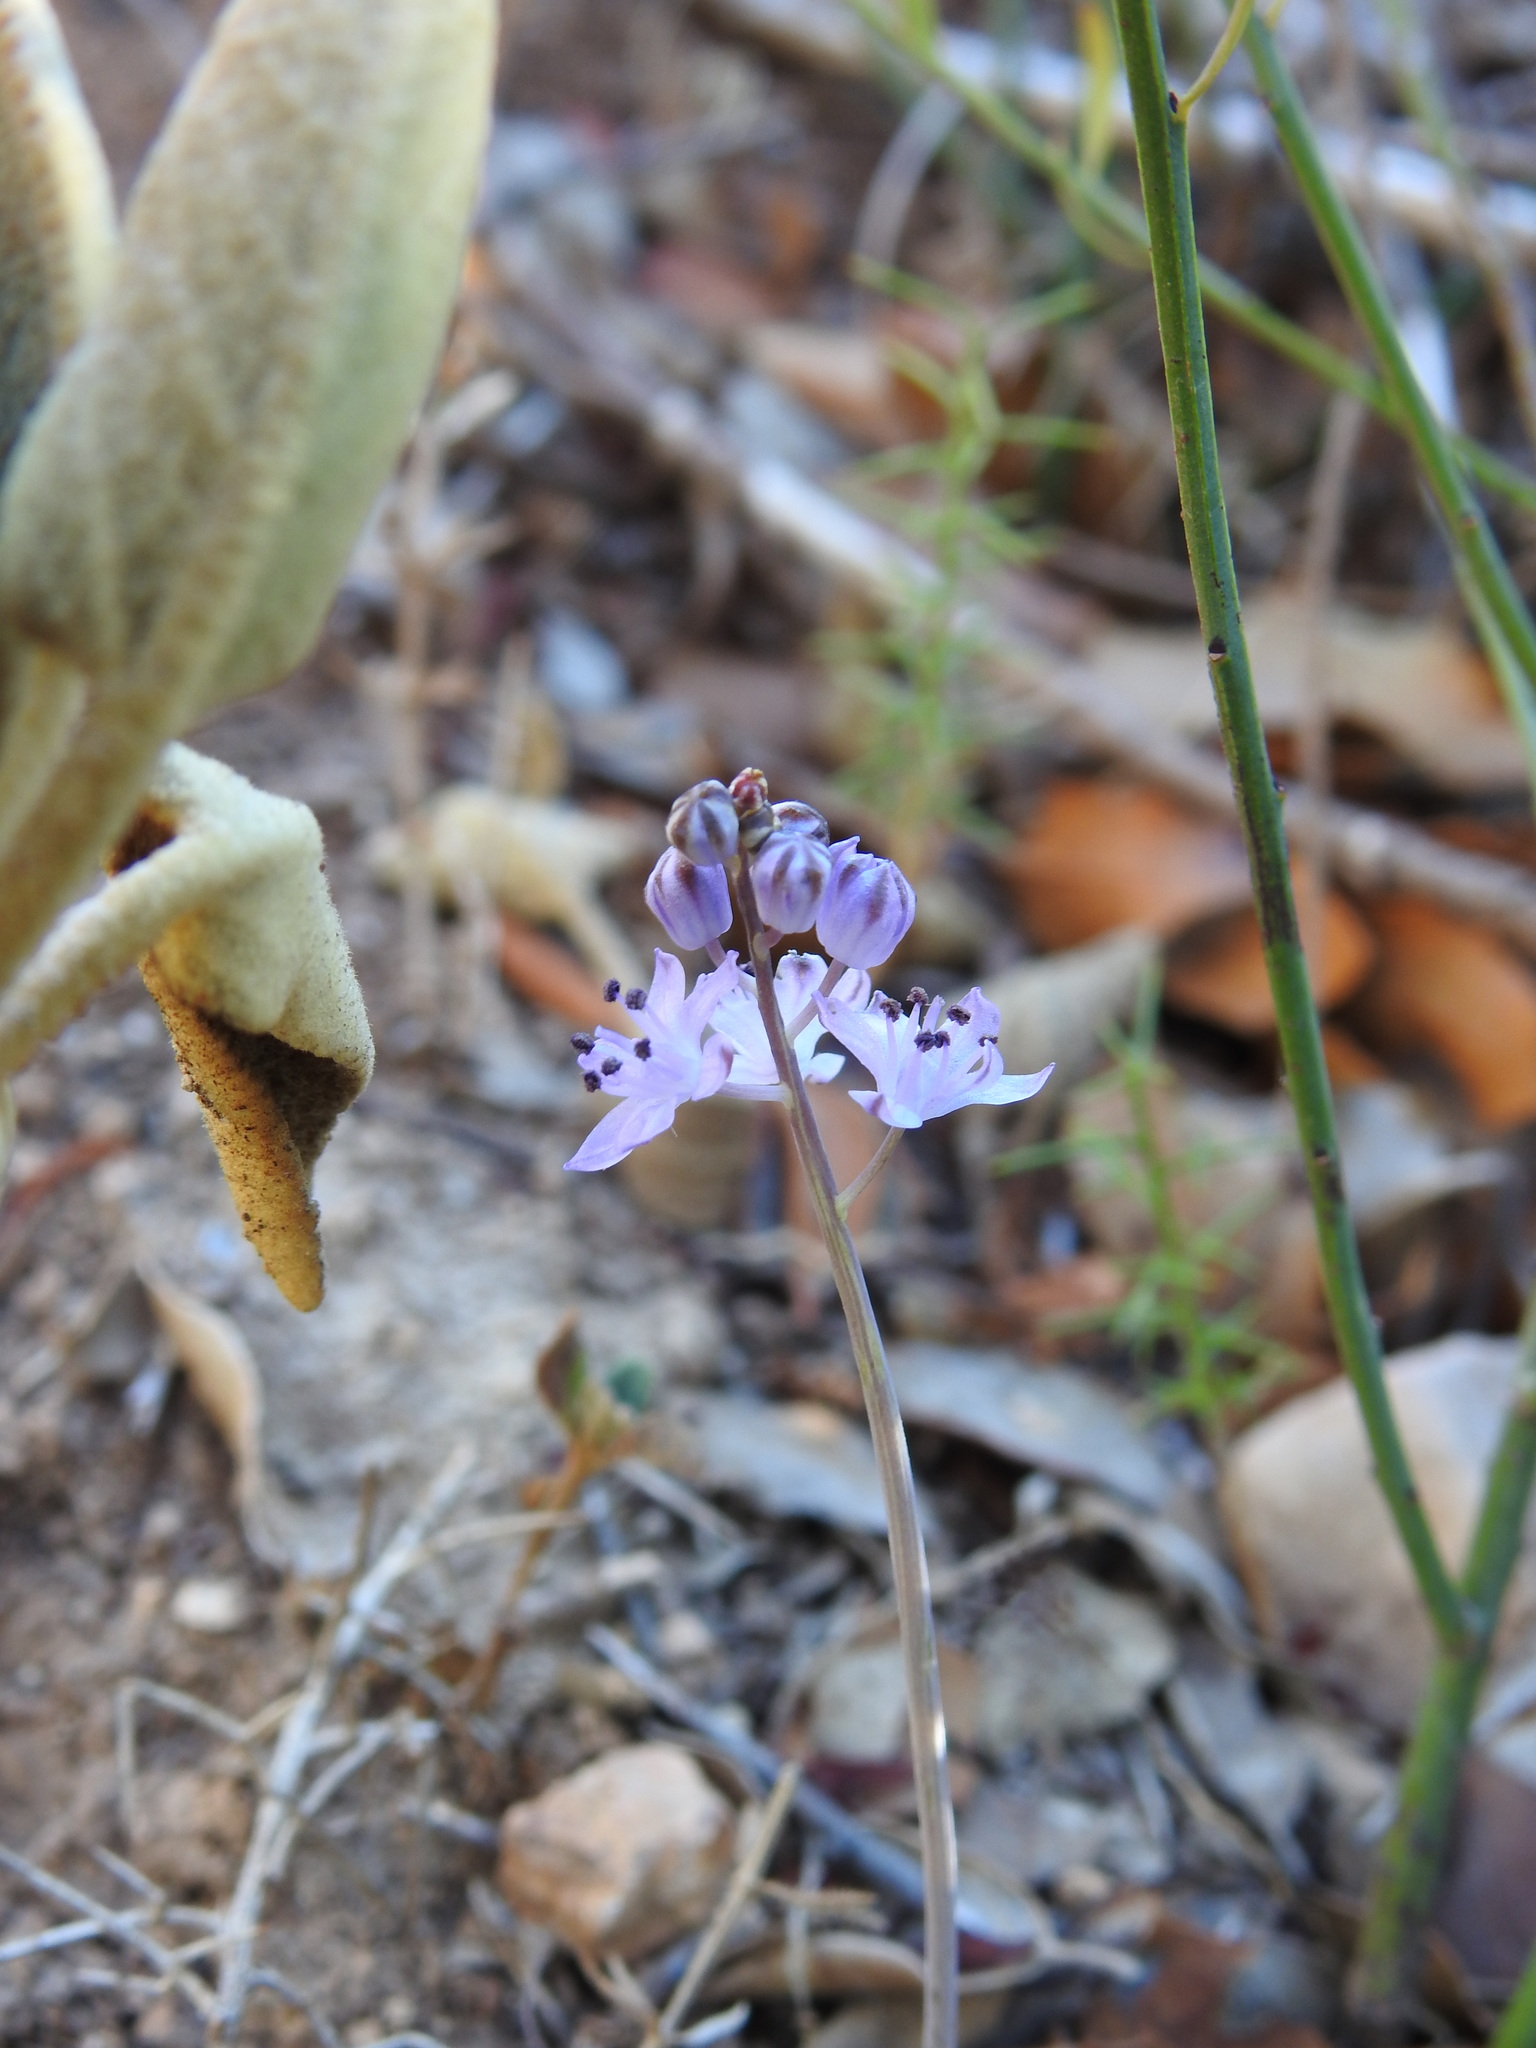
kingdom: Plantae
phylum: Tracheophyta
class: Liliopsida
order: Asparagales
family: Asparagaceae
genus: Prospero
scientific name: Prospero autumnale
